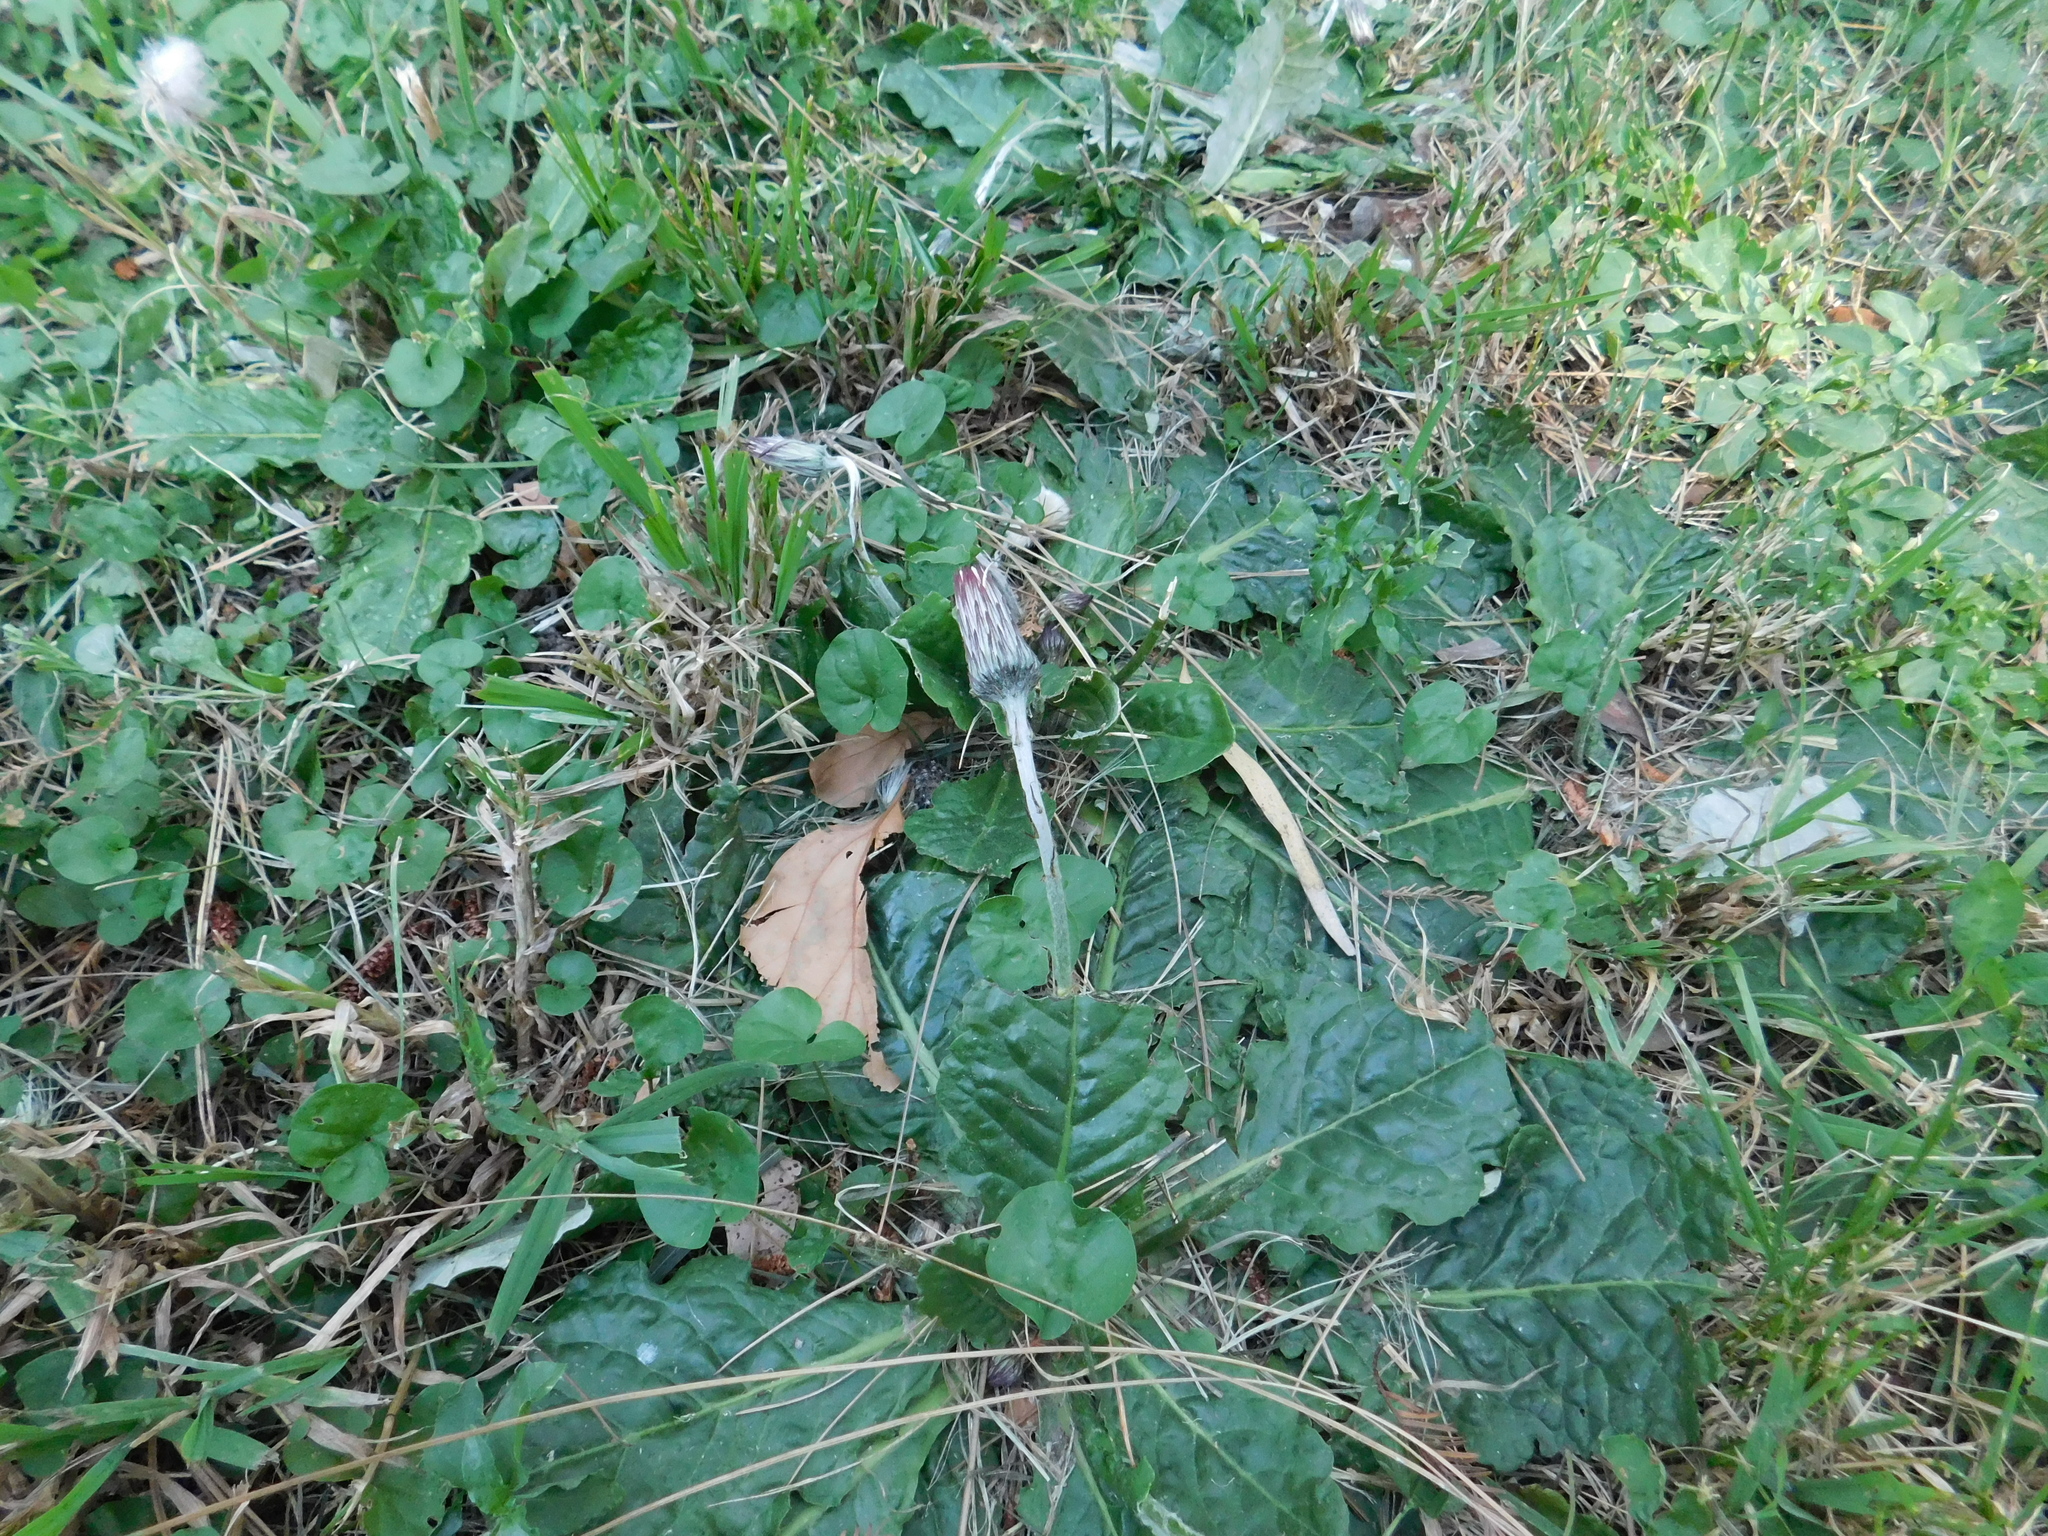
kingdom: Plantae
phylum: Tracheophyta
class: Magnoliopsida
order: Asterales
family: Asteraceae
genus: Chaptalia
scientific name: Chaptalia arechavaletae
